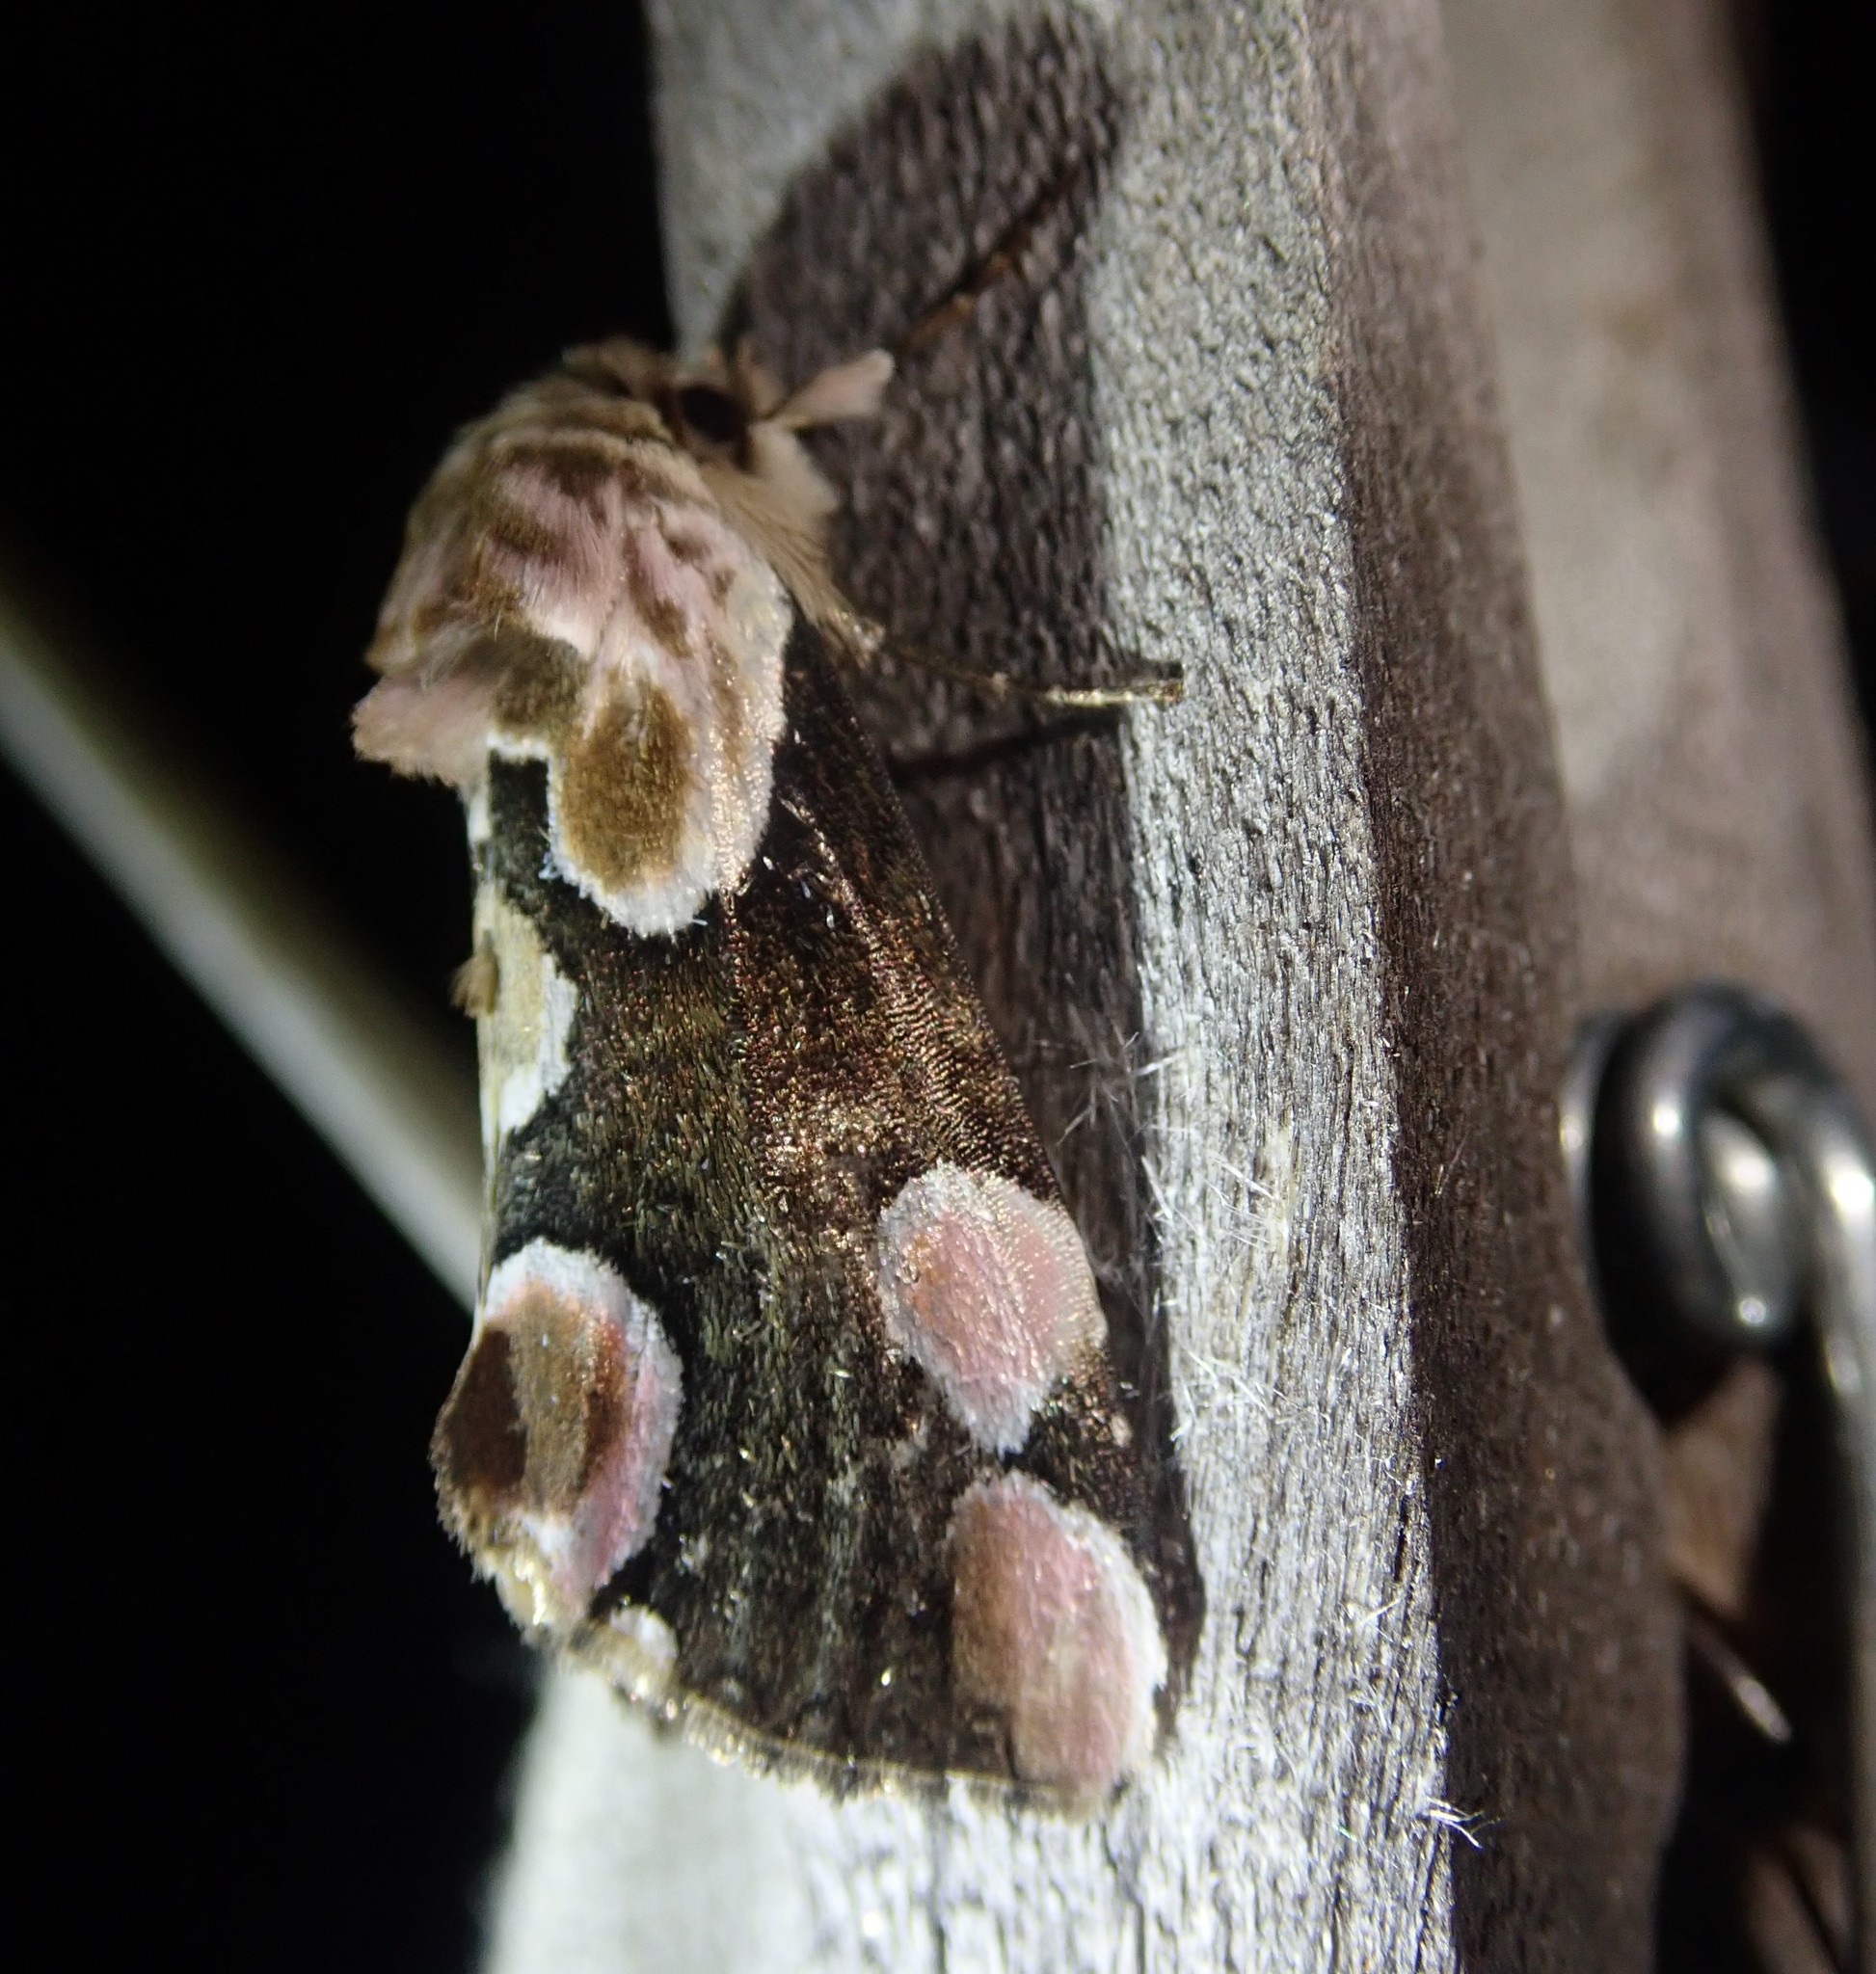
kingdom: Animalia
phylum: Arthropoda
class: Insecta
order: Lepidoptera
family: Drepanidae
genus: Thyatira
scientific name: Thyatira batis
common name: Peach blossom
